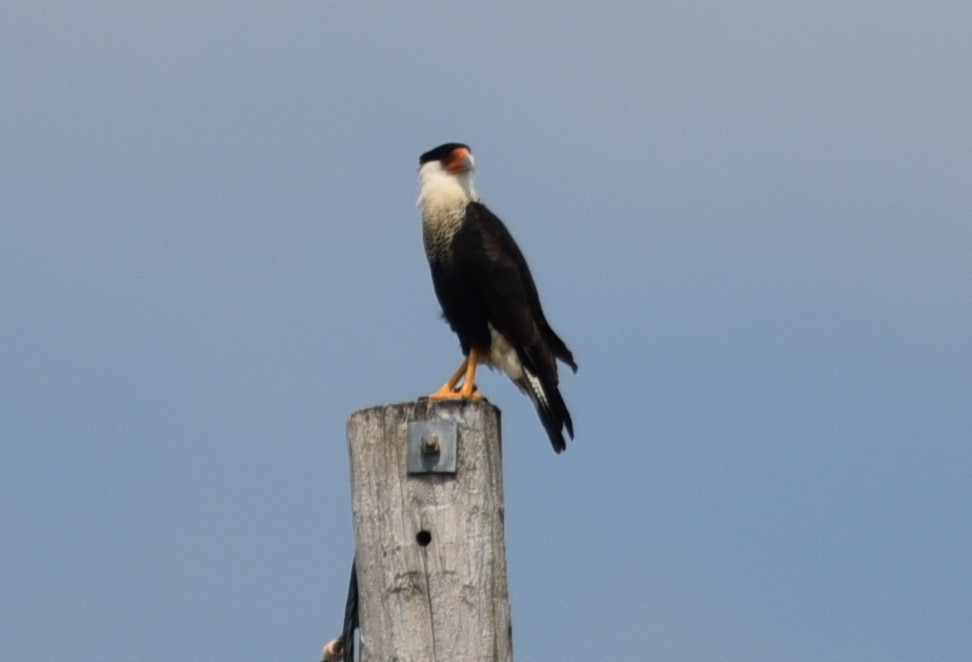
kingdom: Animalia
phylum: Chordata
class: Aves
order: Falconiformes
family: Falconidae
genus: Caracara
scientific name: Caracara plancus
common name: Southern caracara
